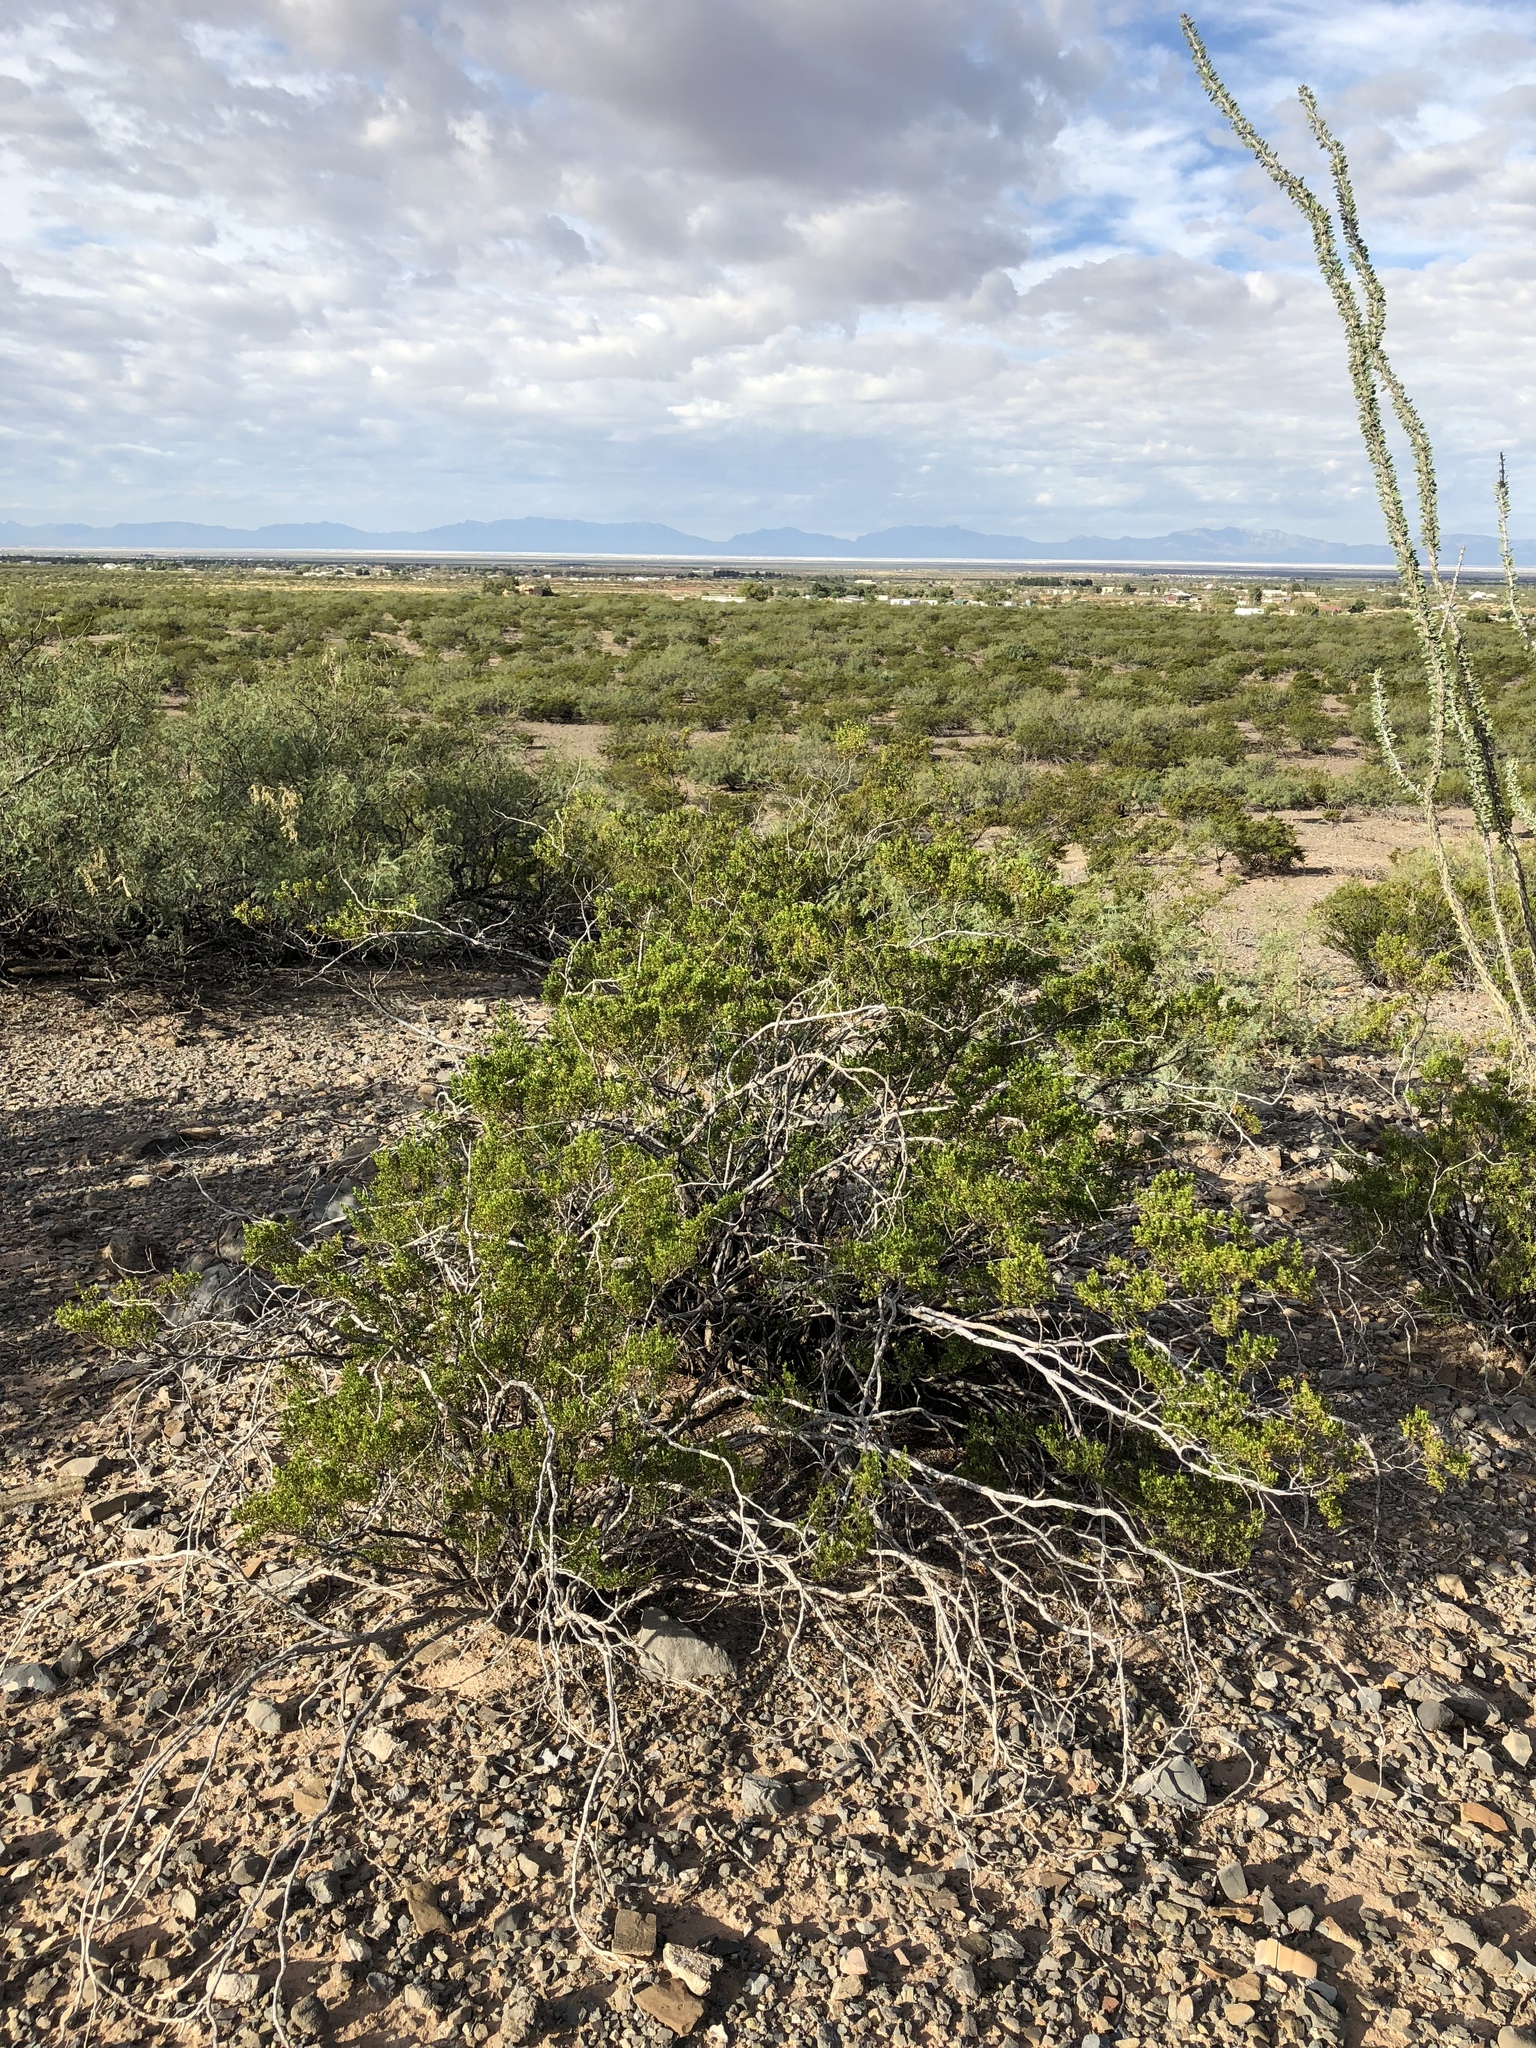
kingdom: Plantae
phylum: Tracheophyta
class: Magnoliopsida
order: Zygophyllales
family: Zygophyllaceae
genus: Larrea
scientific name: Larrea tridentata
